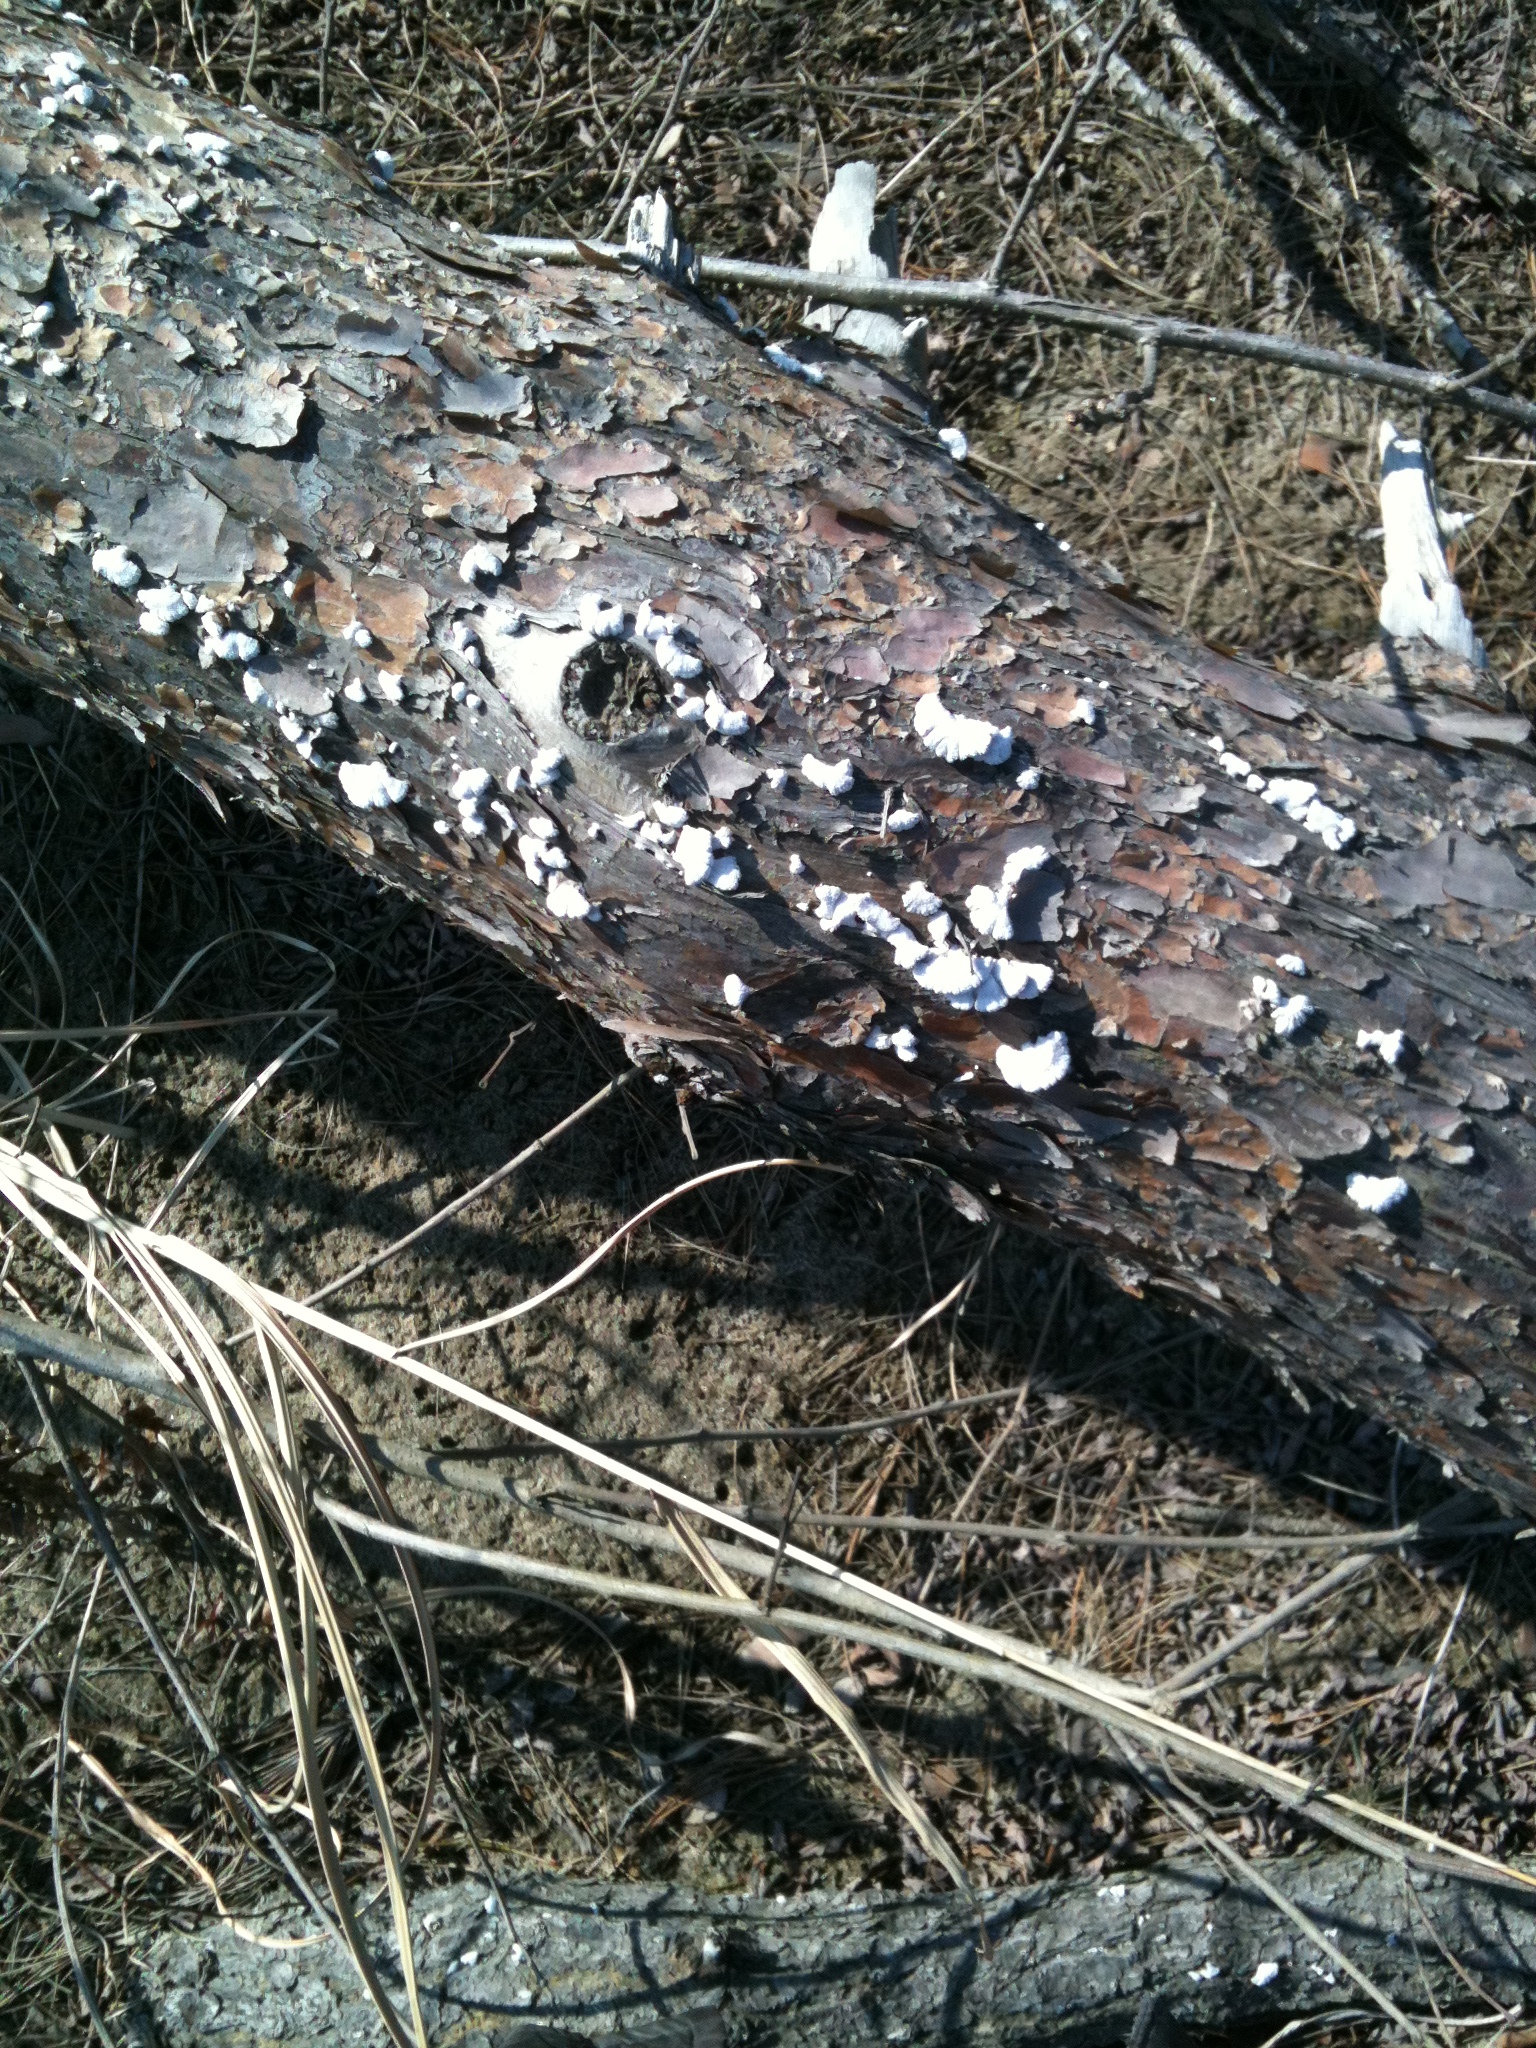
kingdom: Fungi
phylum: Basidiomycota
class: Agaricomycetes
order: Agaricales
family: Schizophyllaceae
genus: Schizophyllum
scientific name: Schizophyllum commune
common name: Common porecrust
